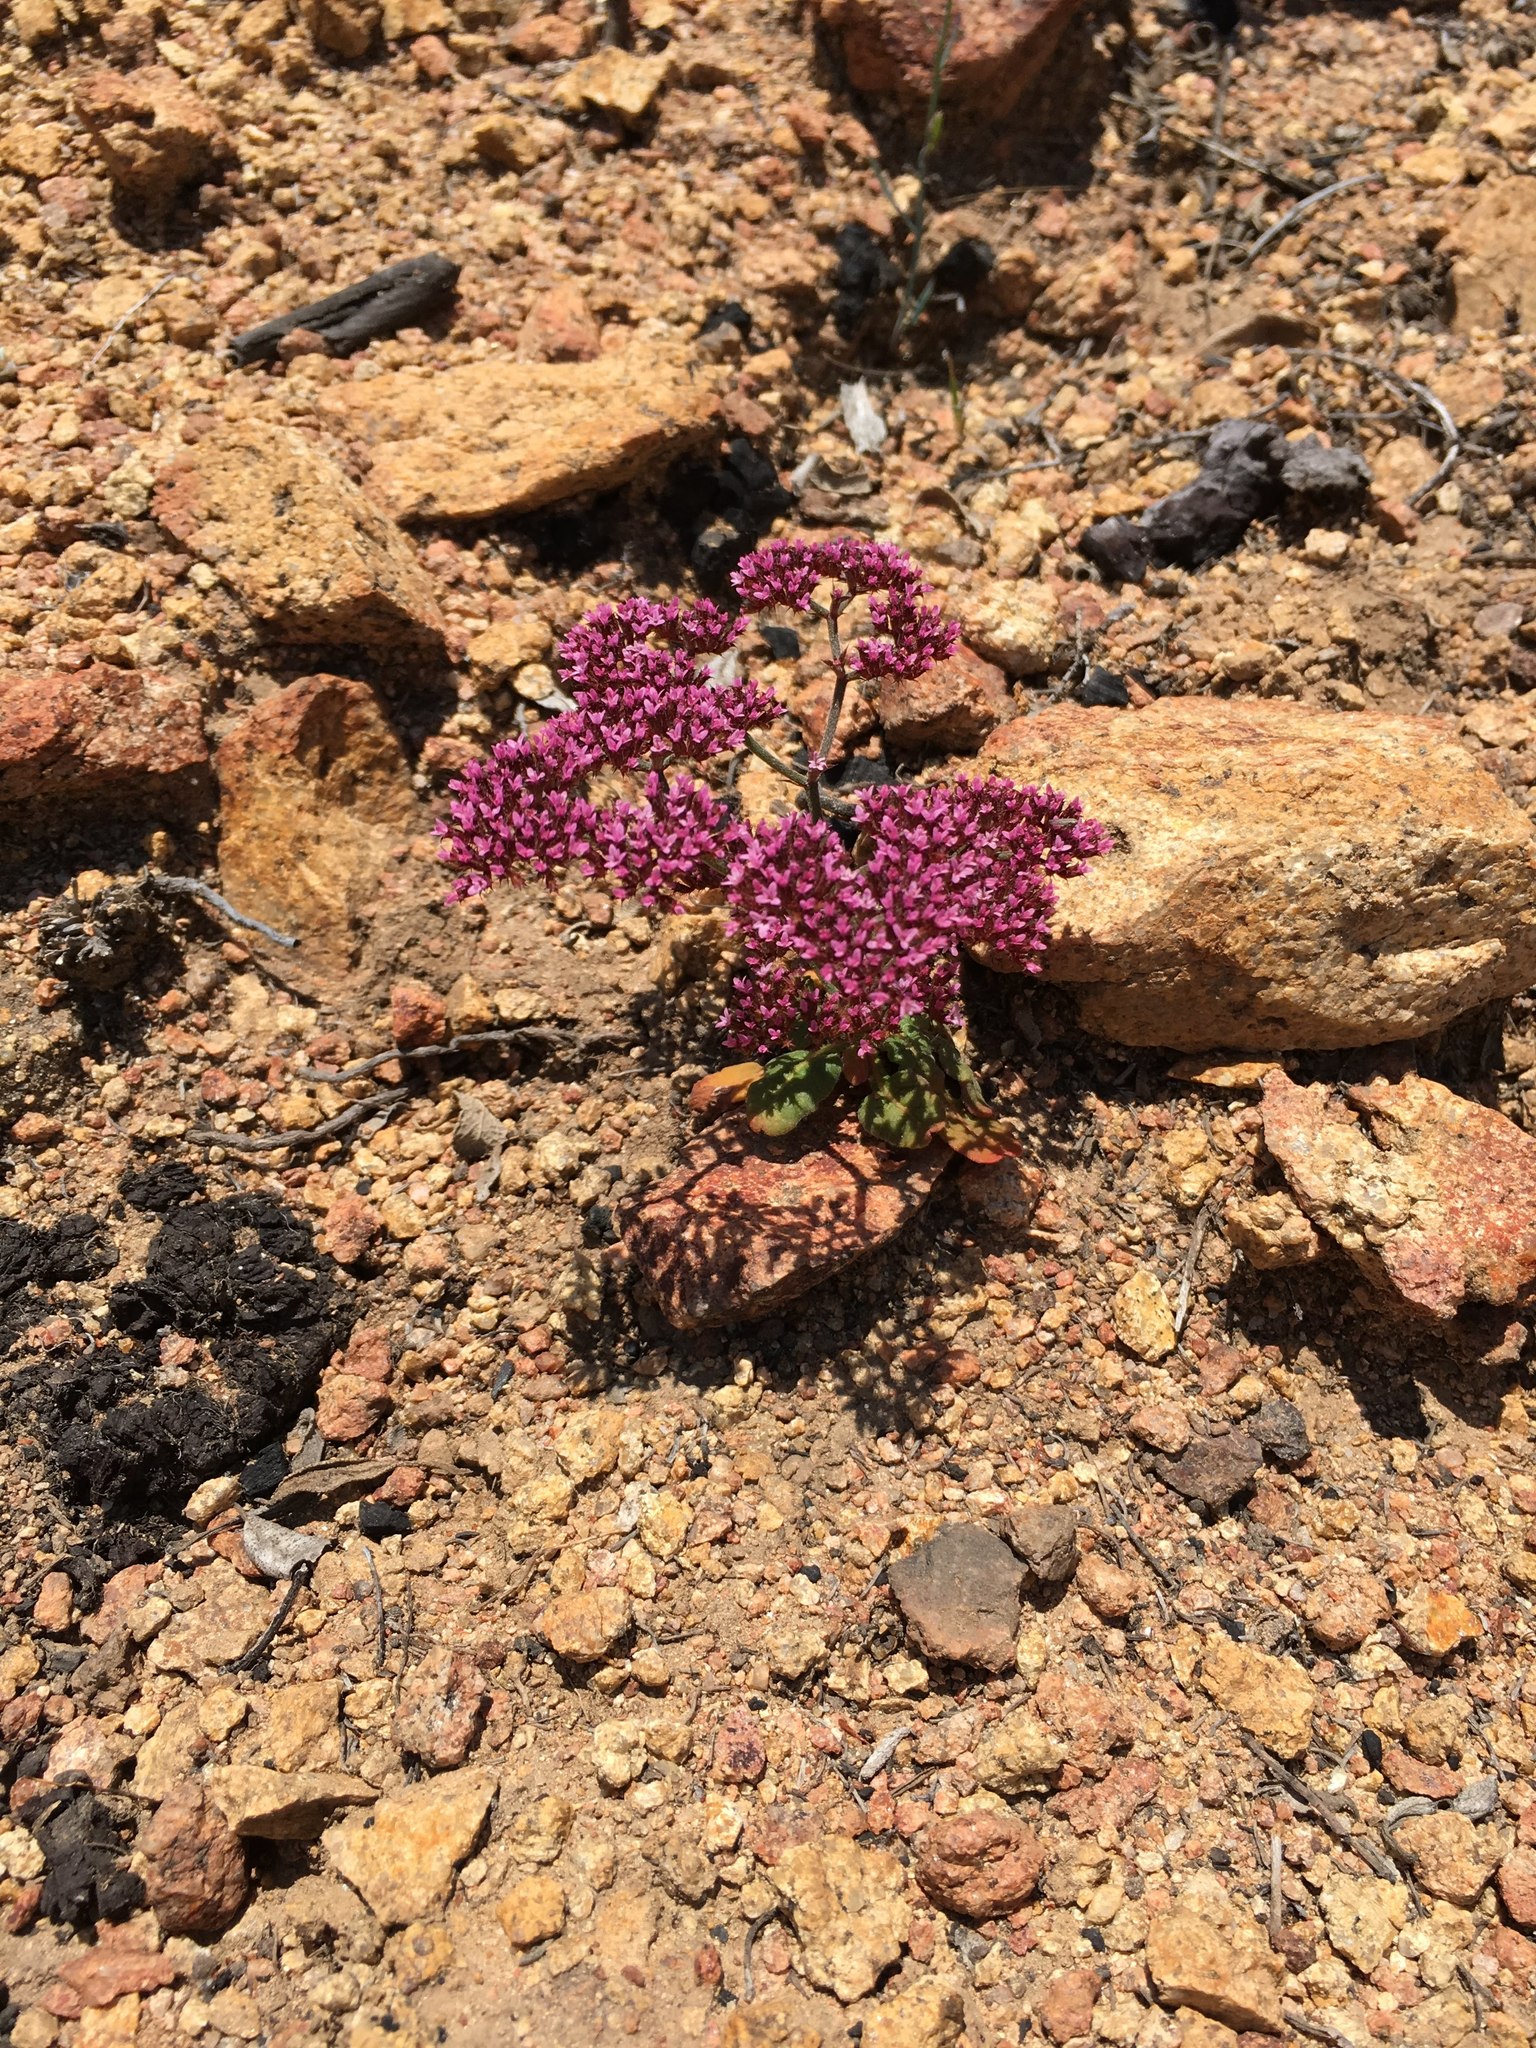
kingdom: Plantae
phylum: Tracheophyta
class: Magnoliopsida
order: Caryophyllales
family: Polygonaceae
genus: Chorizanthe
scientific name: Chorizanthe staticoides
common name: Turkish rugging
